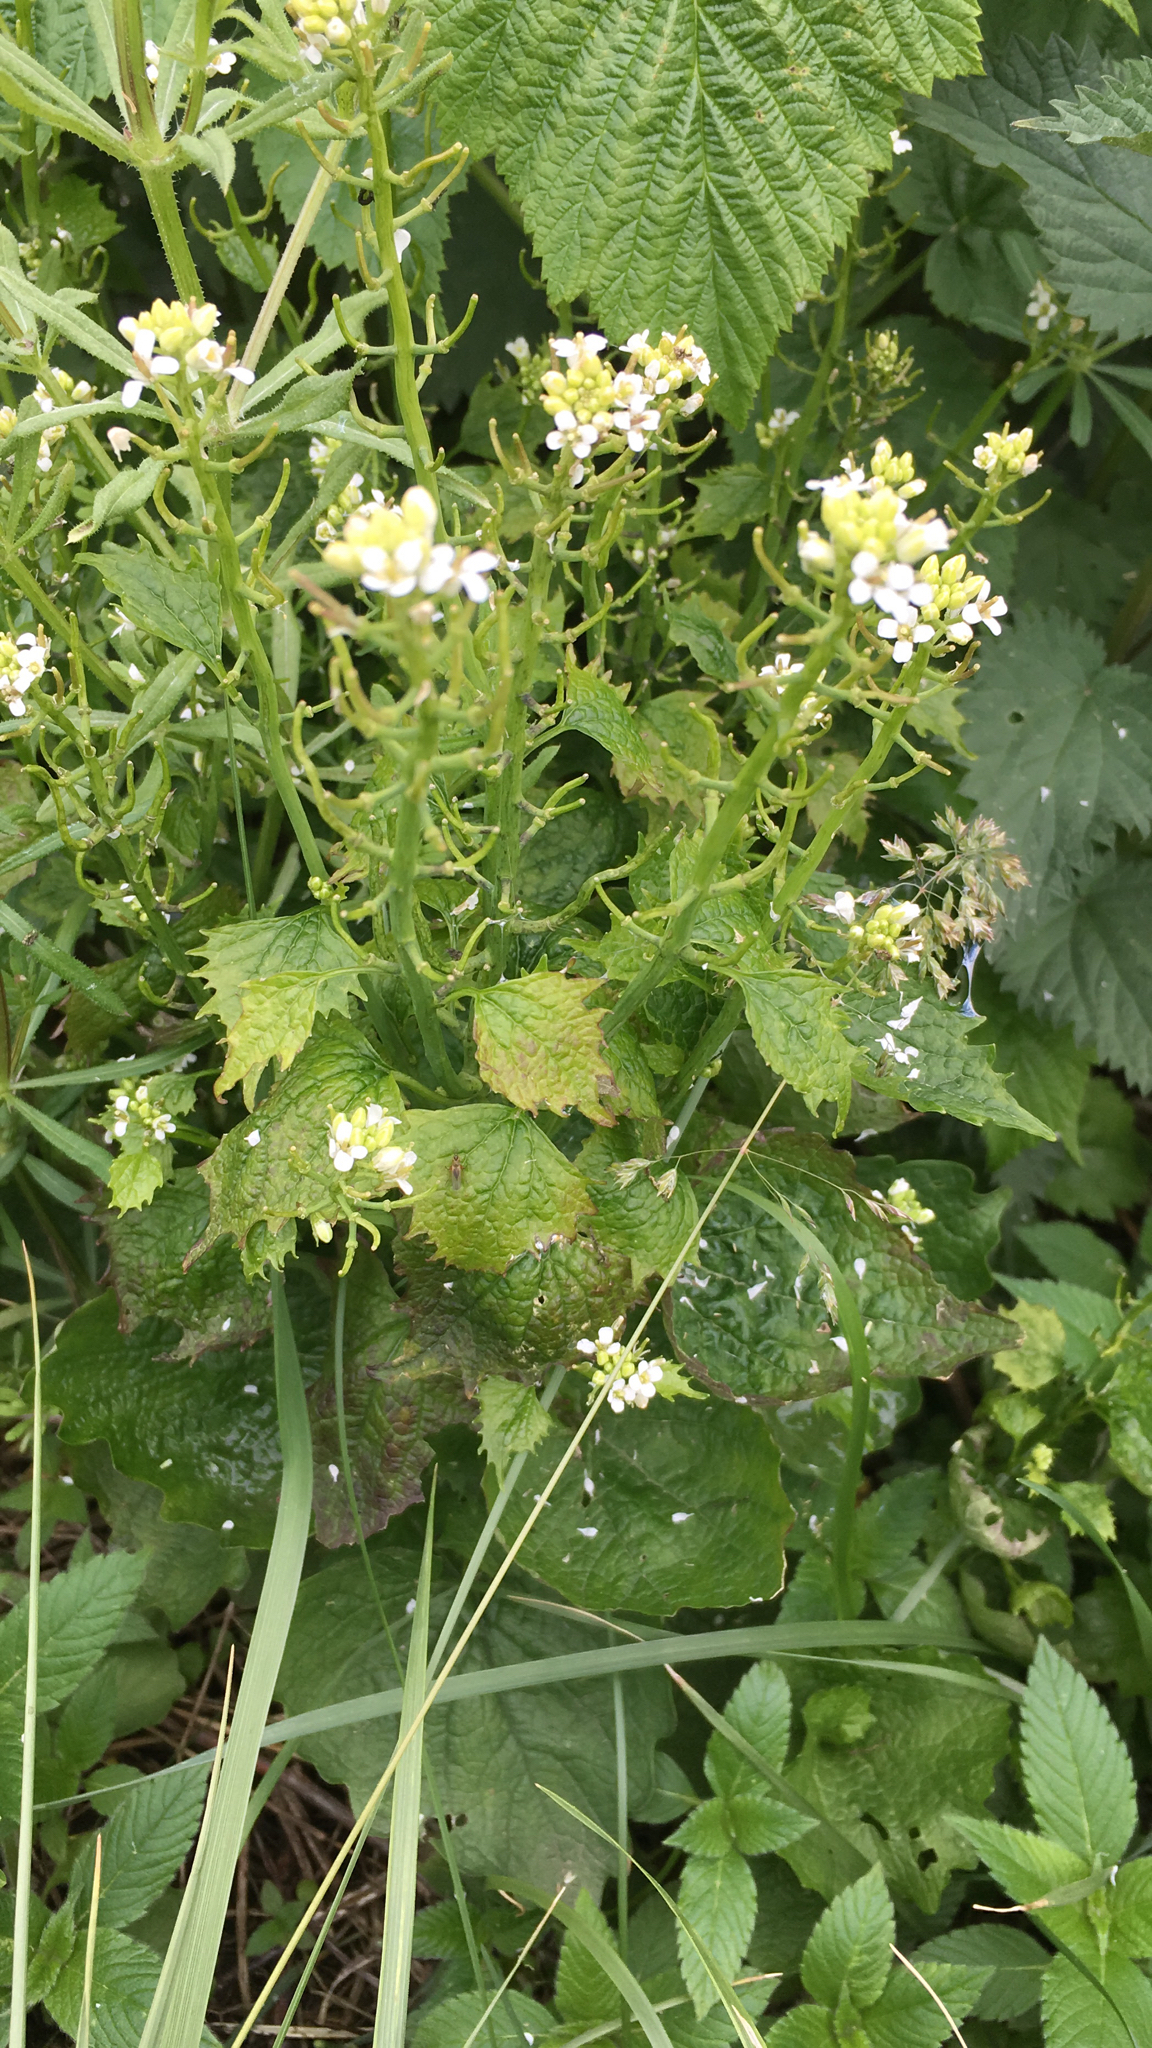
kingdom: Plantae
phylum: Tracheophyta
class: Magnoliopsida
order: Brassicales
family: Brassicaceae
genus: Alliaria
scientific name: Alliaria petiolata
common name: Garlic mustard
